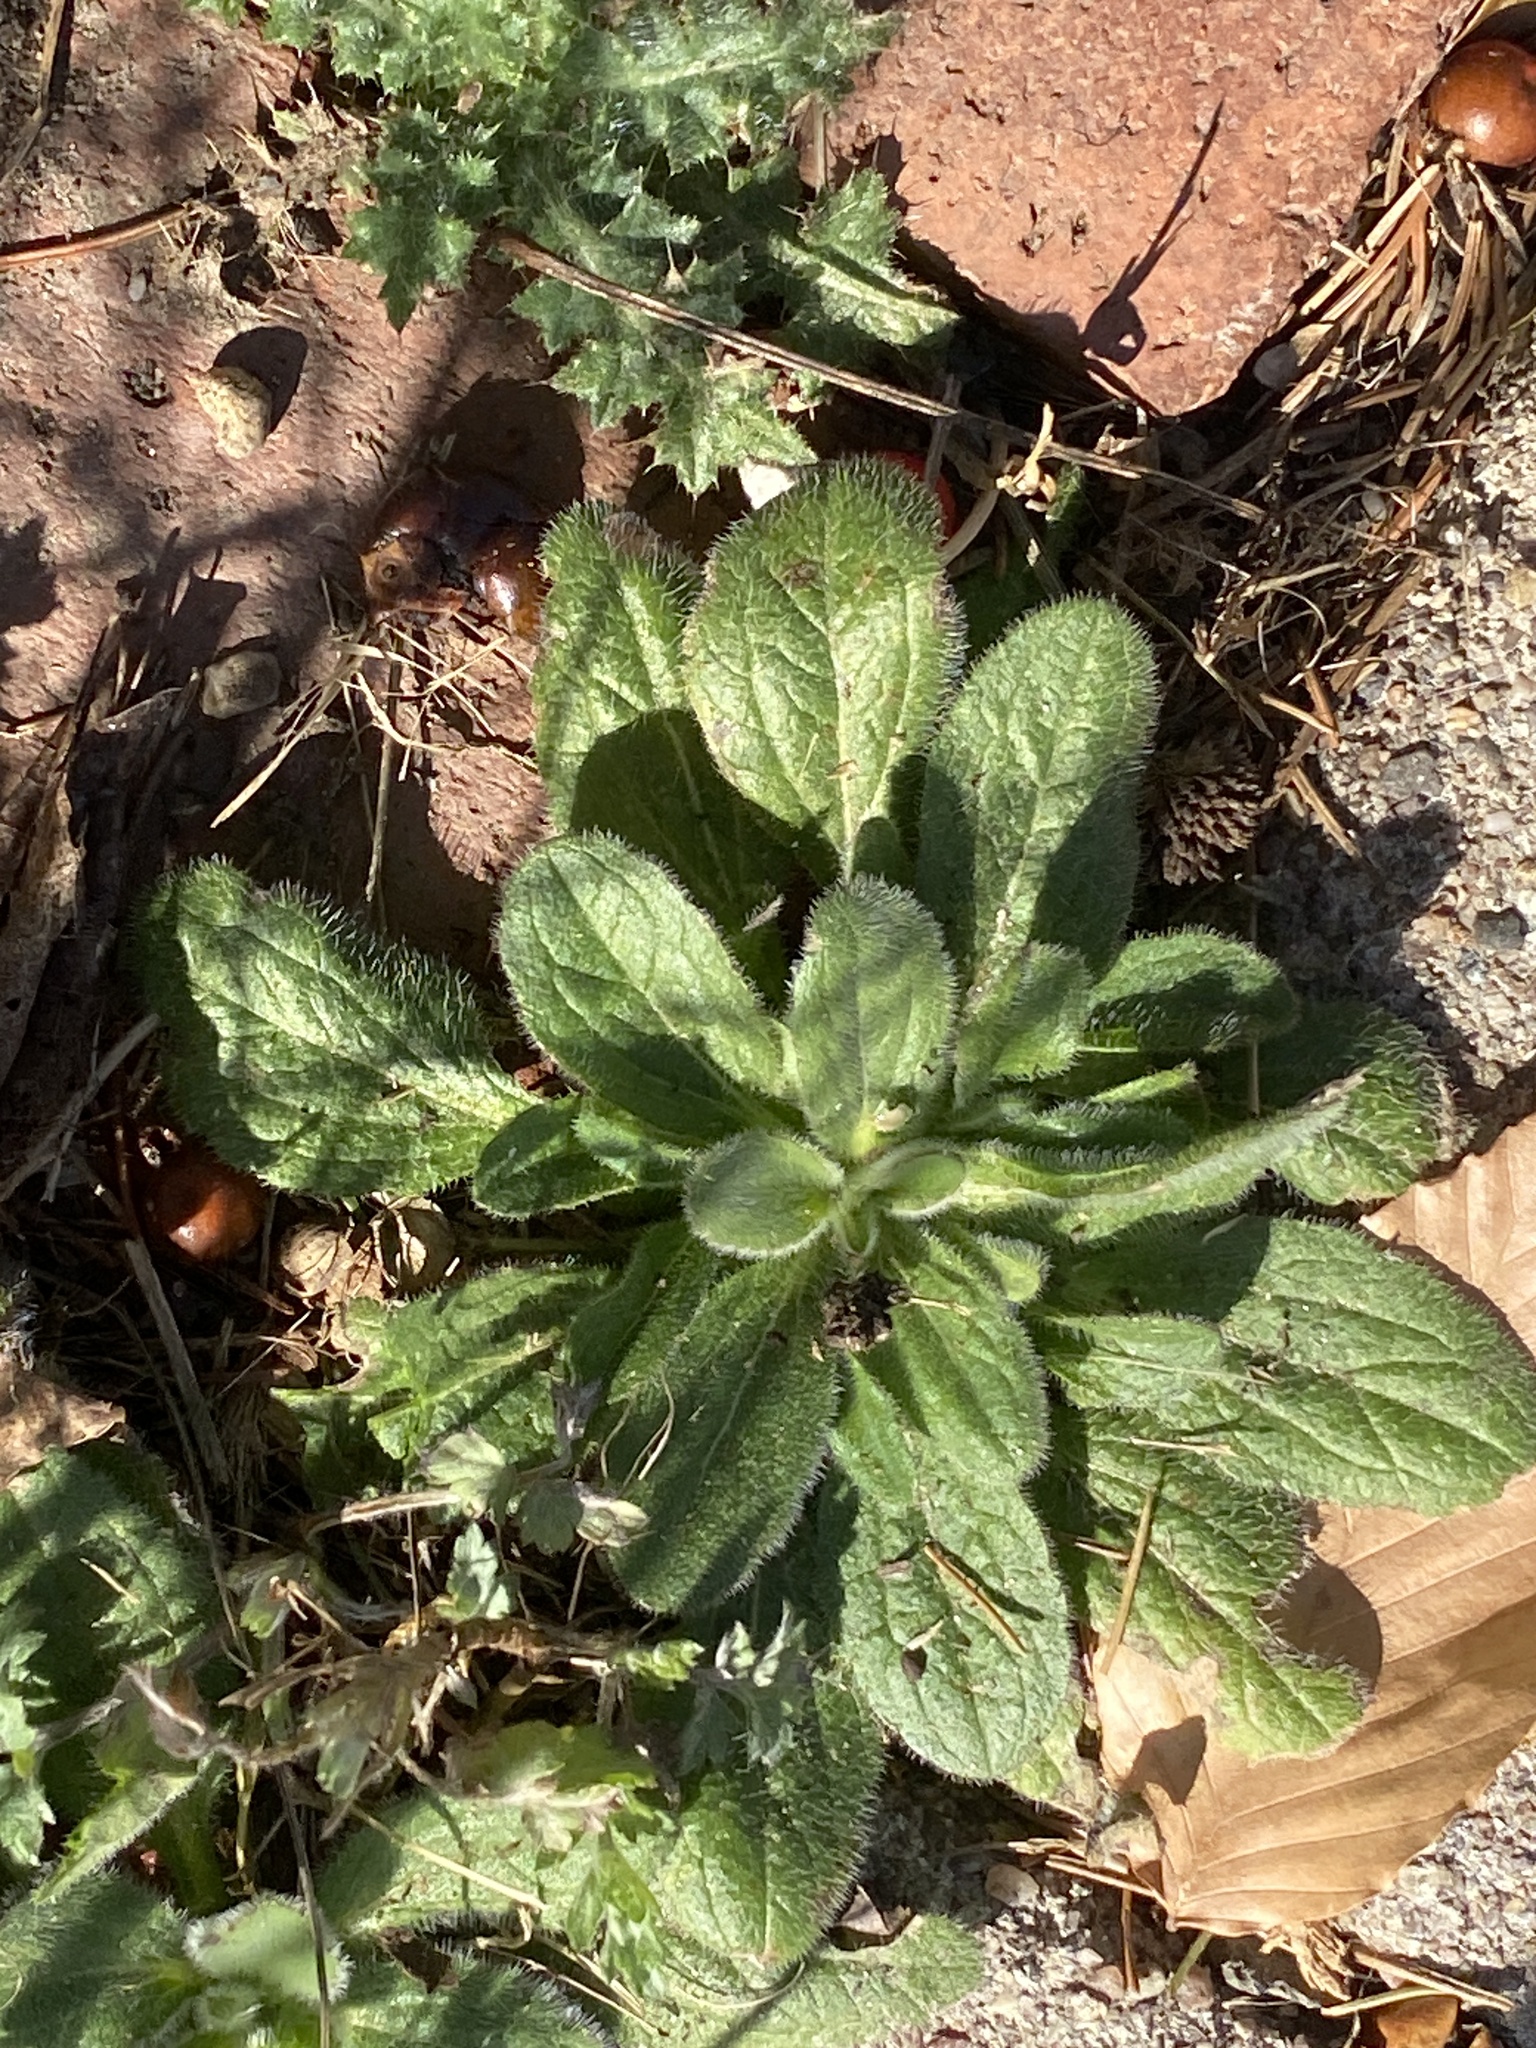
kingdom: Plantae
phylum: Tracheophyta
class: Magnoliopsida
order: Asterales
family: Asteraceae
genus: Rudbeckia
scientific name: Rudbeckia hirta
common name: Black-eyed-susan
